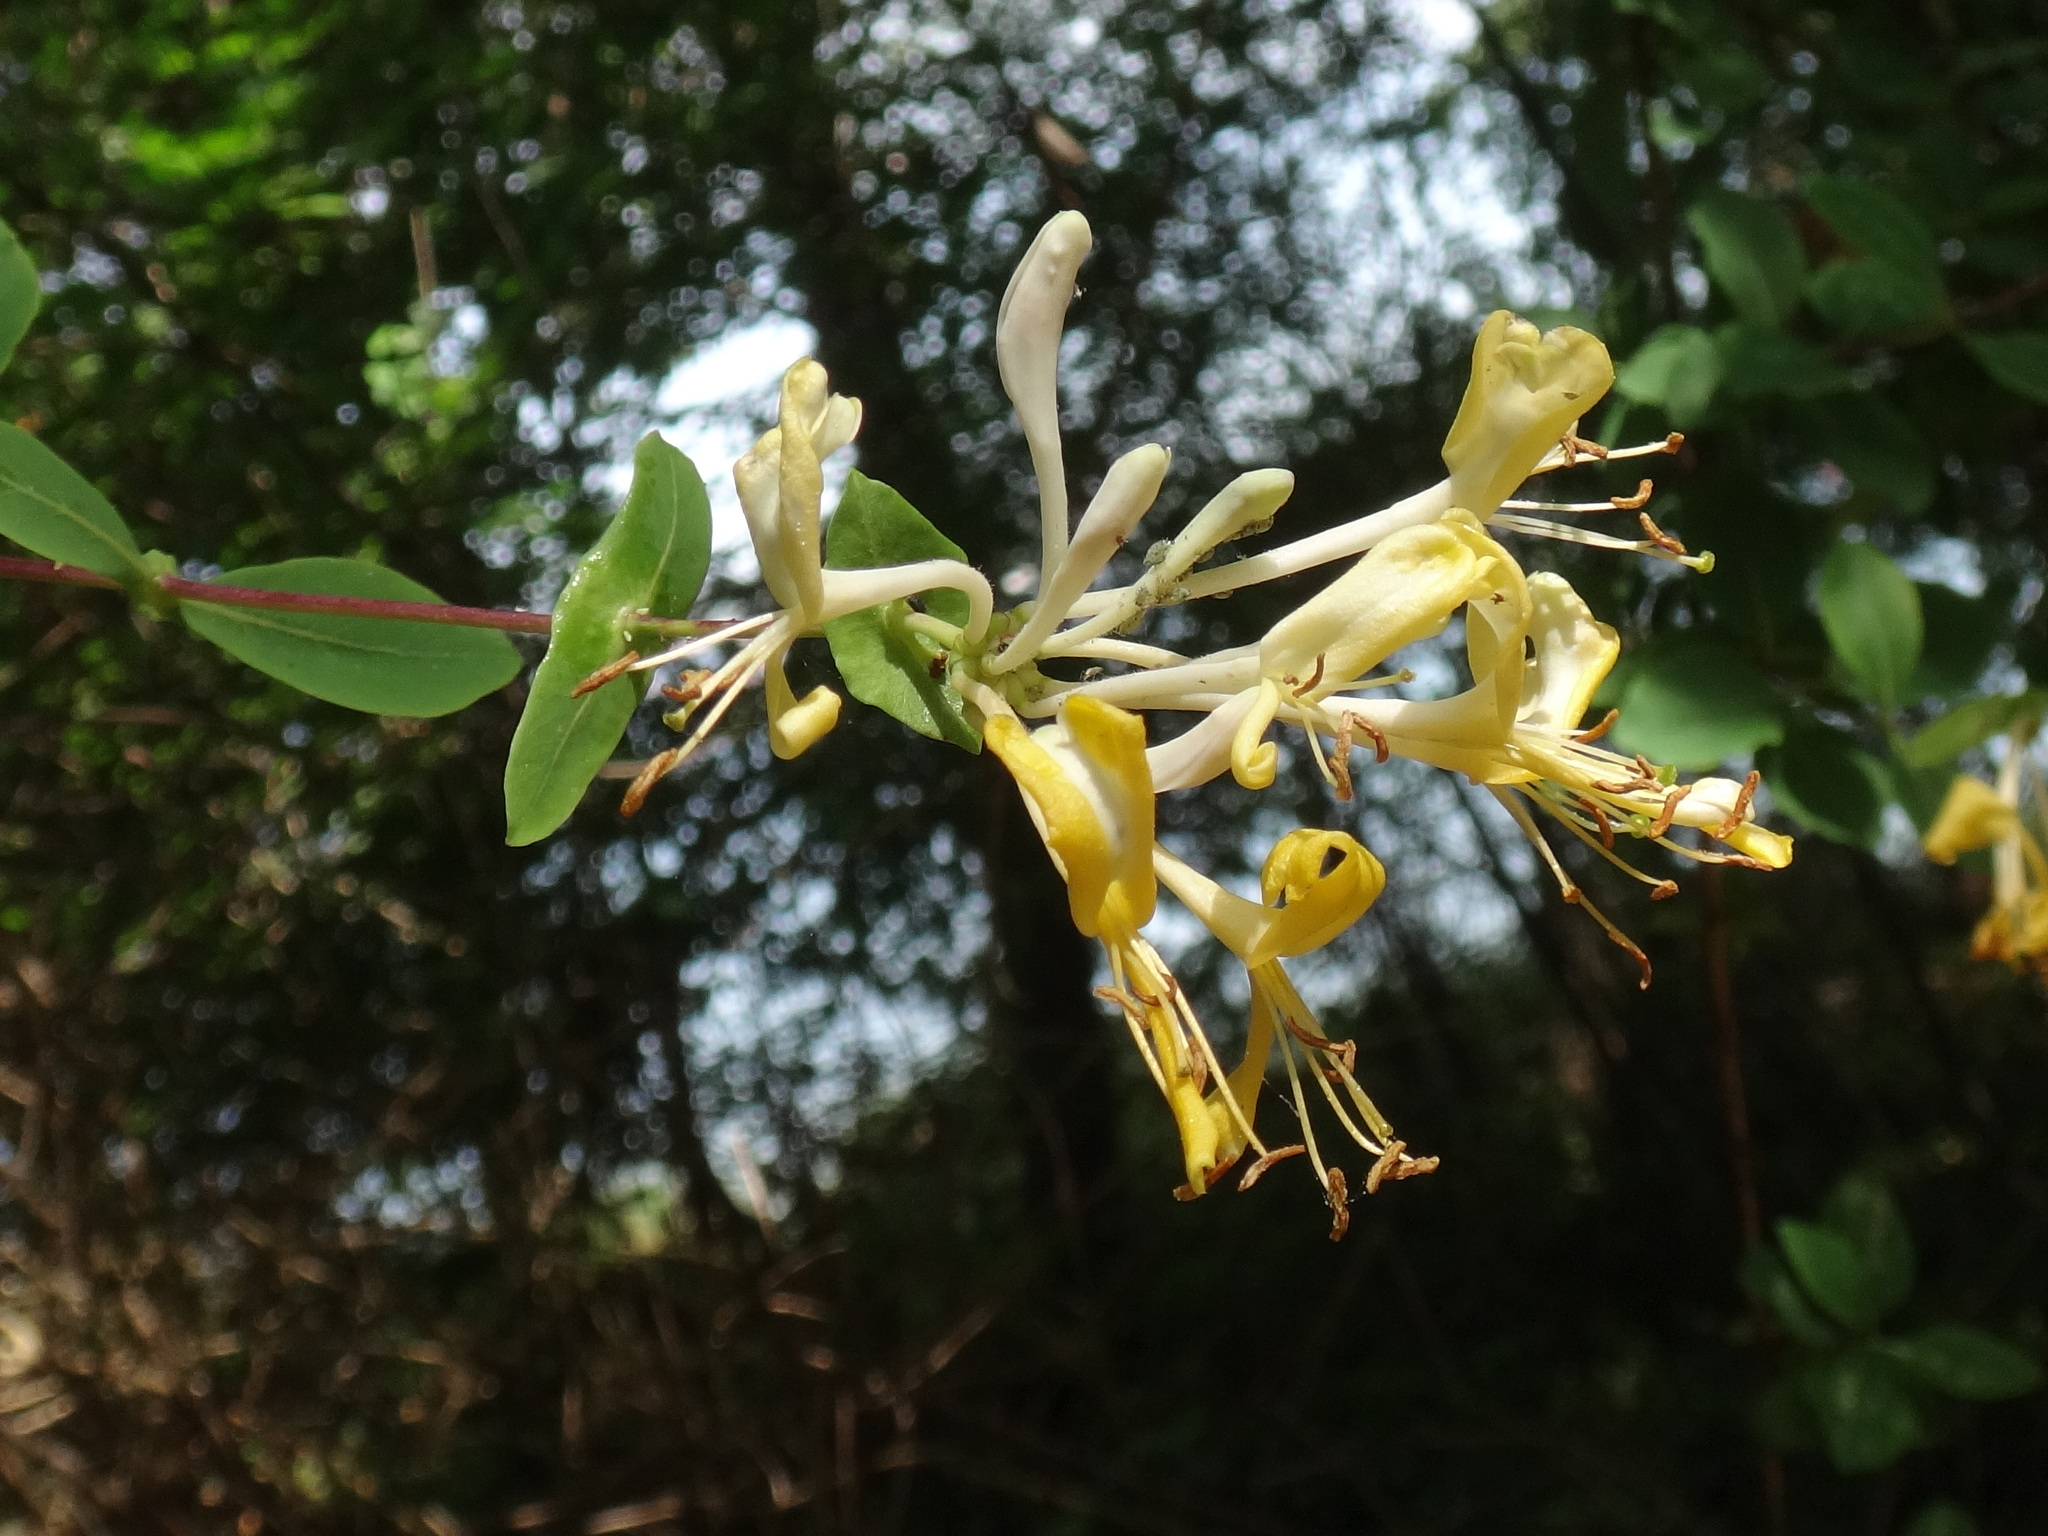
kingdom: Plantae
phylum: Tracheophyta
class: Magnoliopsida
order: Dipsacales
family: Caprifoliaceae
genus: Lonicera
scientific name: Lonicera etrusca
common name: Etruscan honeysuckle
